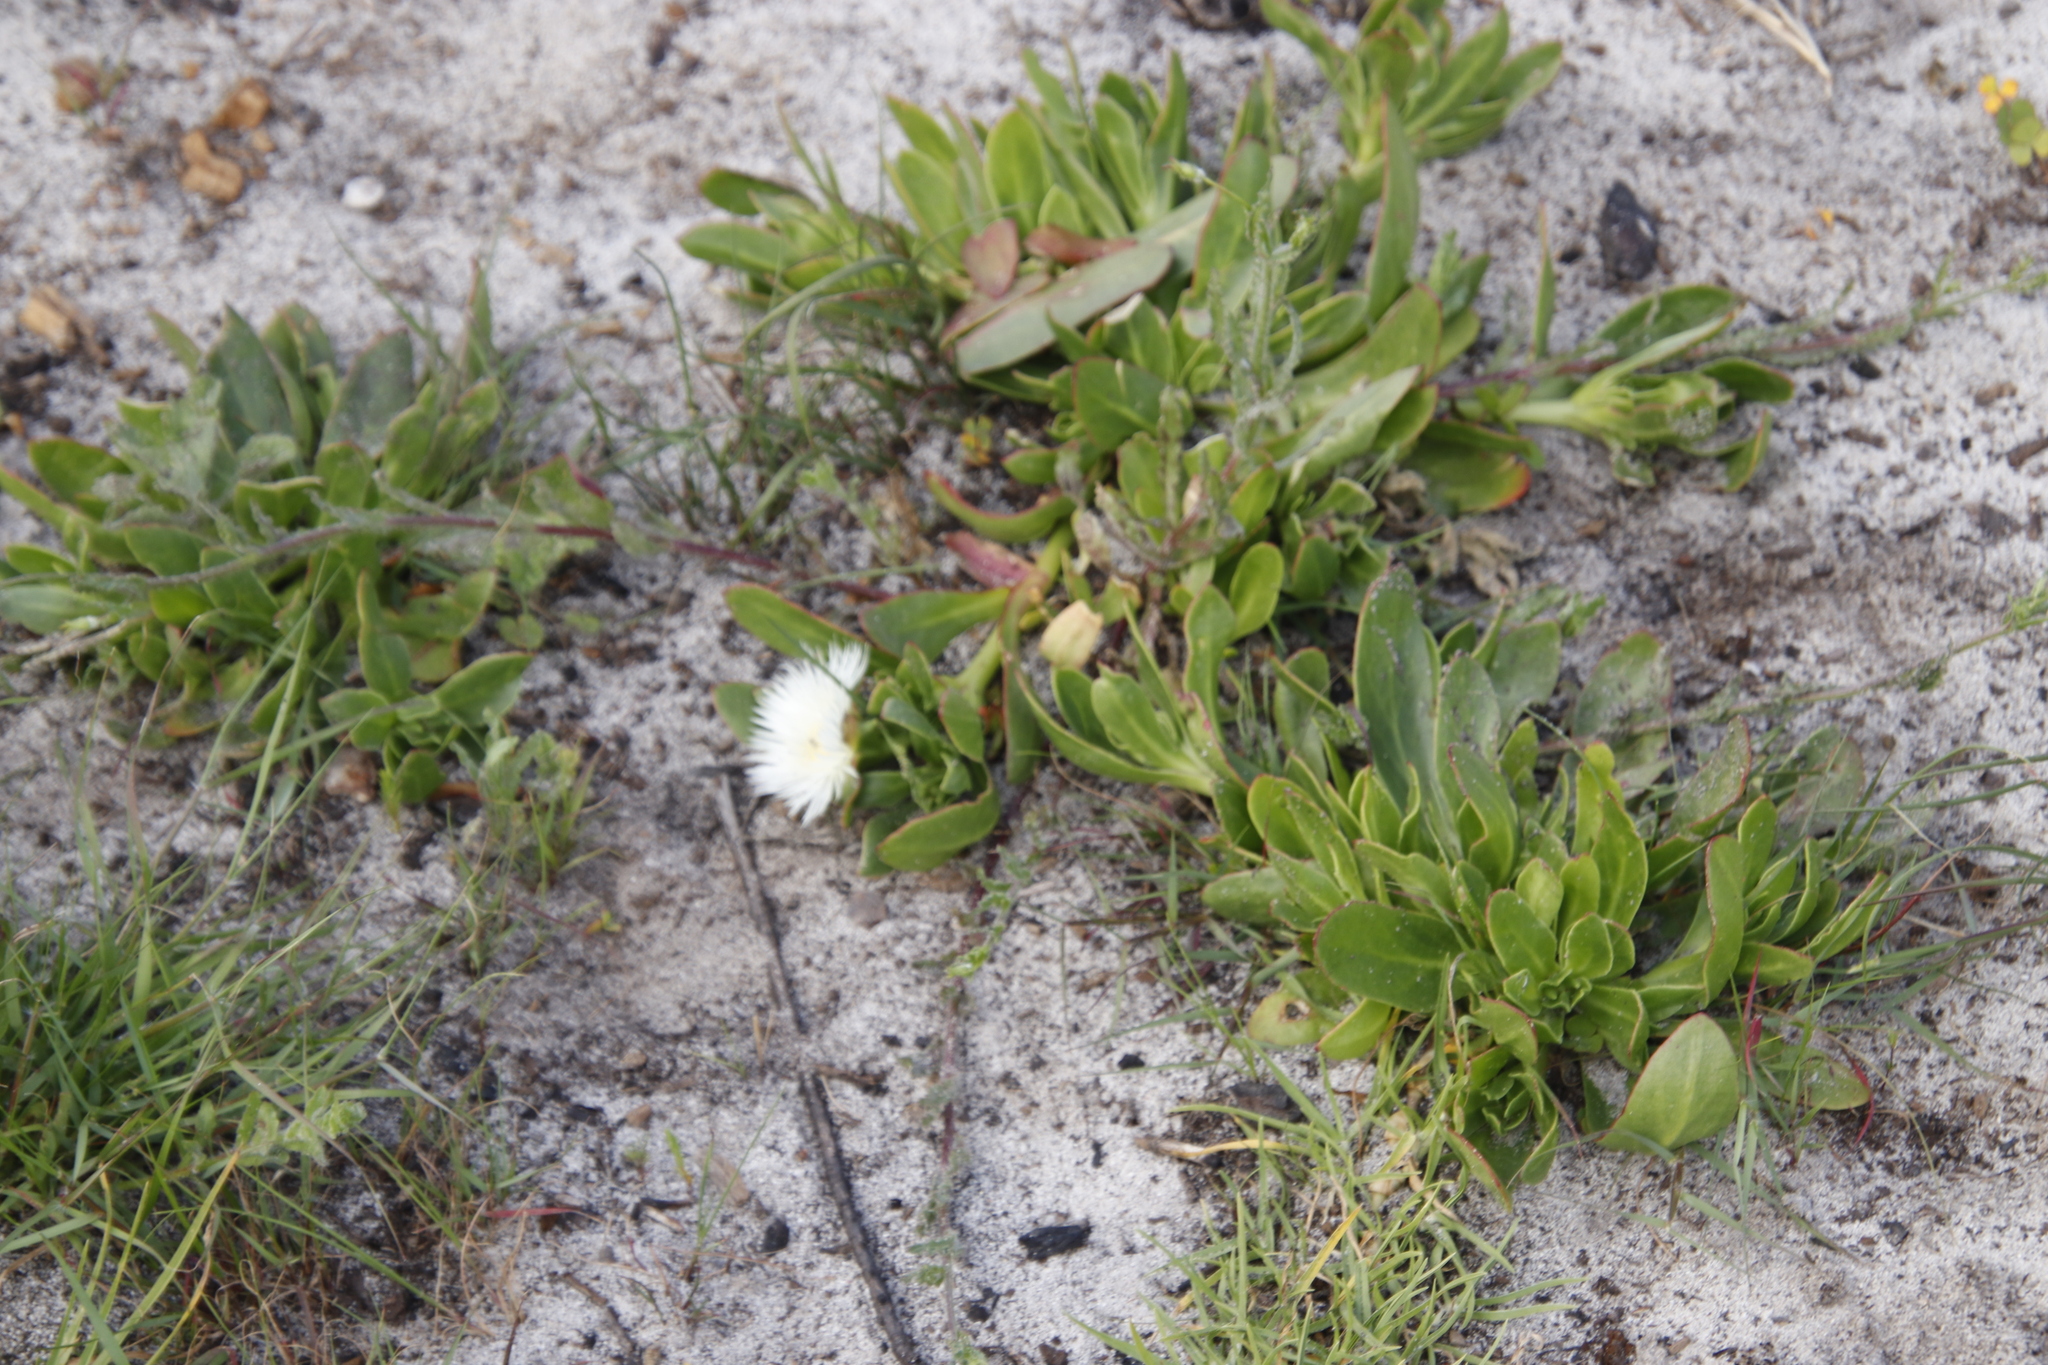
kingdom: Plantae
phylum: Tracheophyta
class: Magnoliopsida
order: Caryophyllales
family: Aizoaceae
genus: Skiatophytum
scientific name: Skiatophytum tripolium
